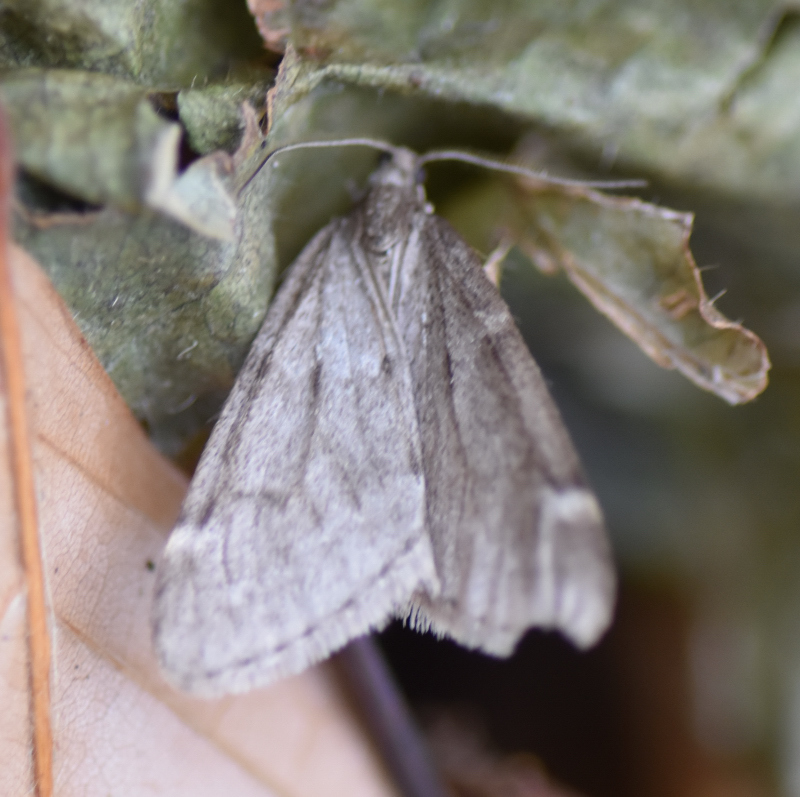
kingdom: Animalia
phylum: Arthropoda
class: Insecta
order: Lepidoptera
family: Geometridae
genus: Alsophila
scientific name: Alsophila pometaria
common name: Fall cankerworm
